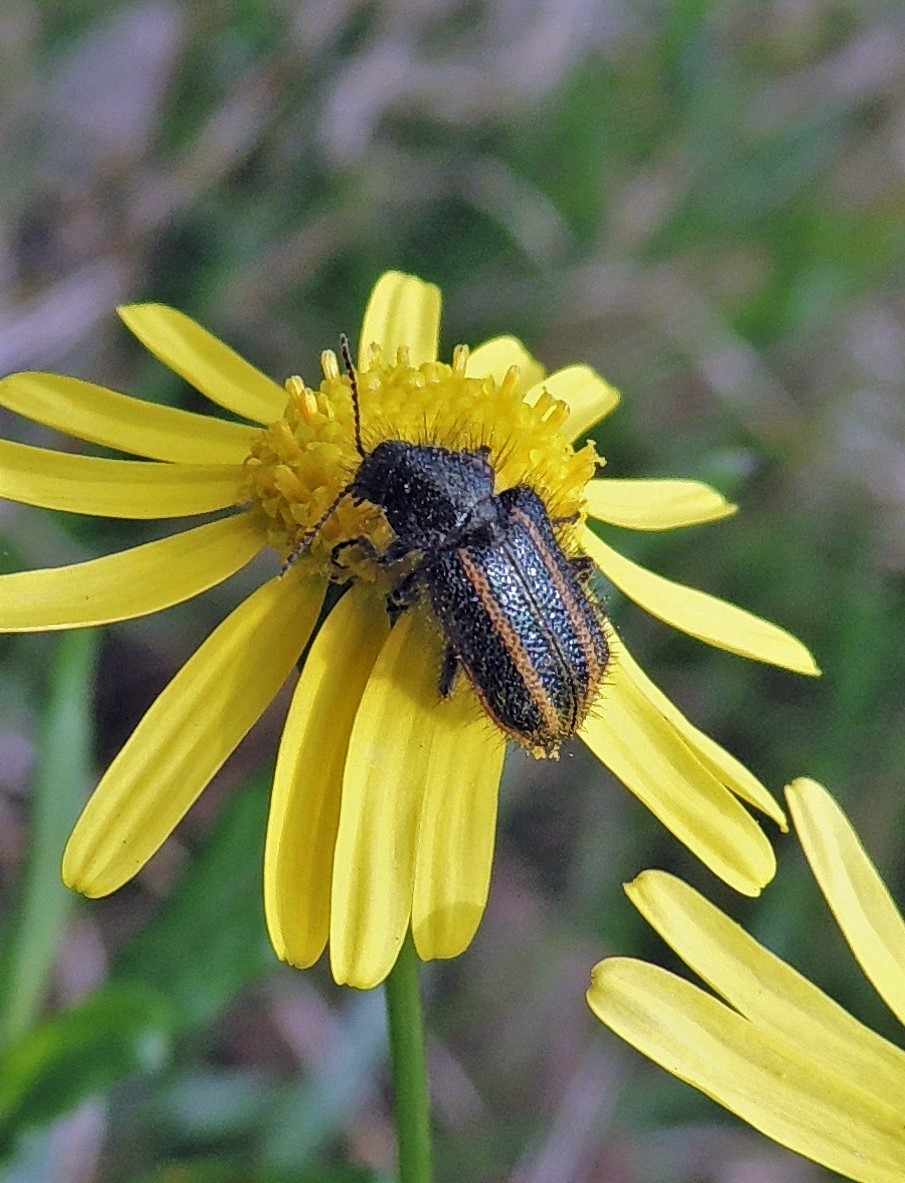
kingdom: Animalia
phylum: Arthropoda
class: Insecta
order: Coleoptera
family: Melyridae
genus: Astylus
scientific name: Astylus
